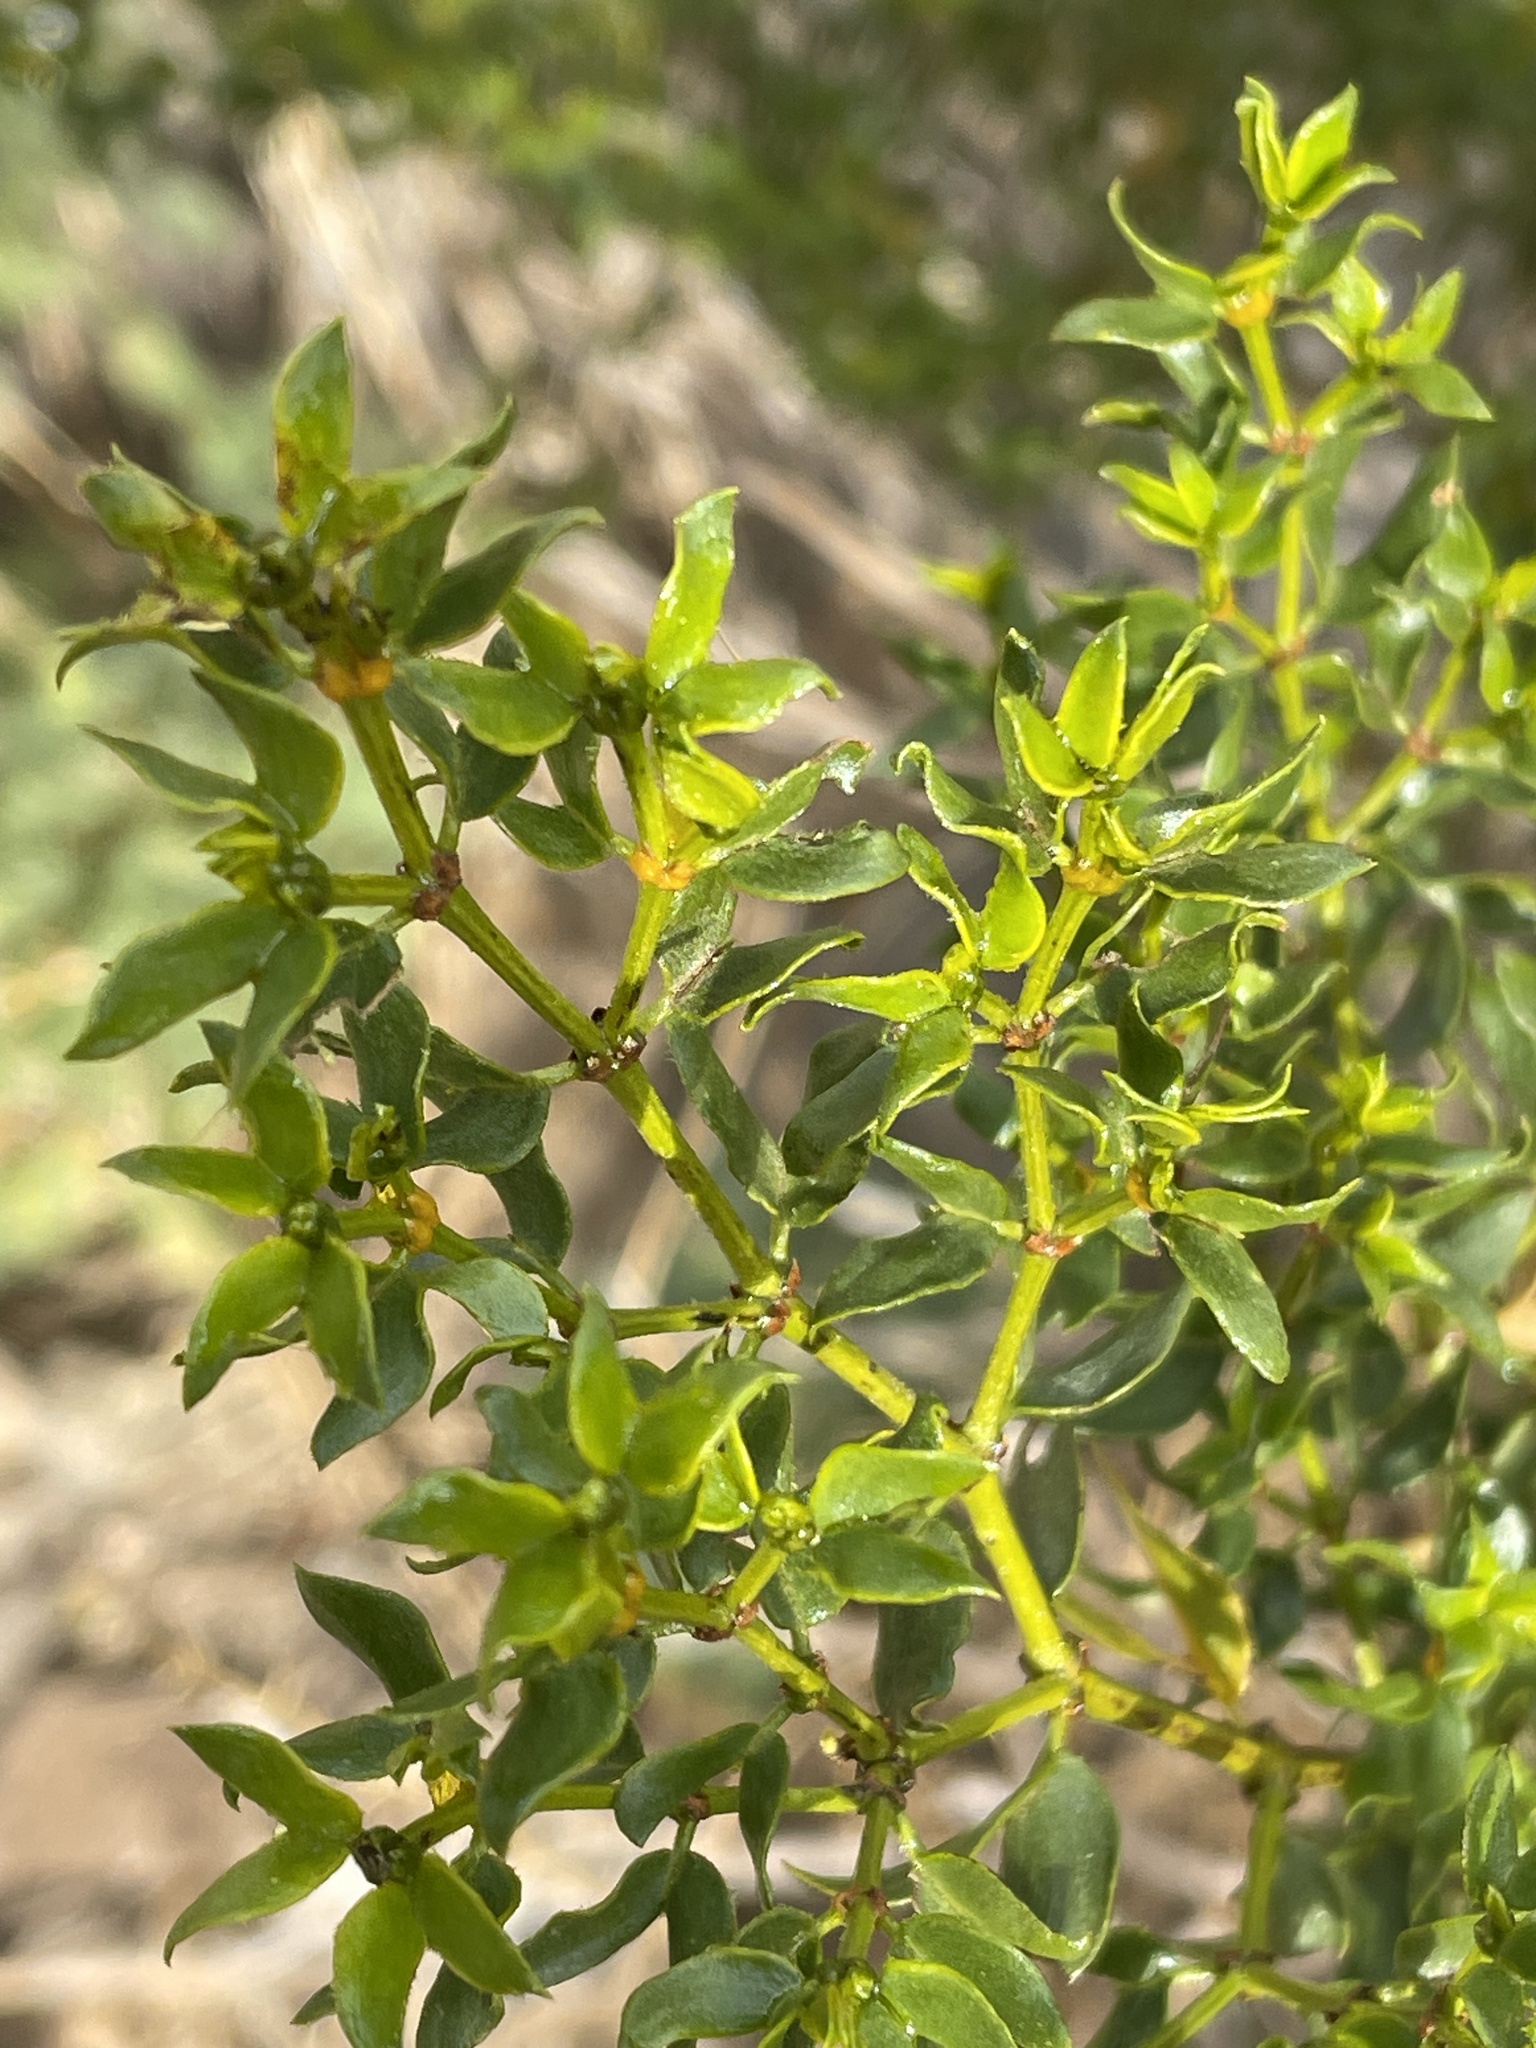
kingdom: Plantae
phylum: Tracheophyta
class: Magnoliopsida
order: Zygophyllales
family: Zygophyllaceae
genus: Larrea
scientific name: Larrea tridentata
